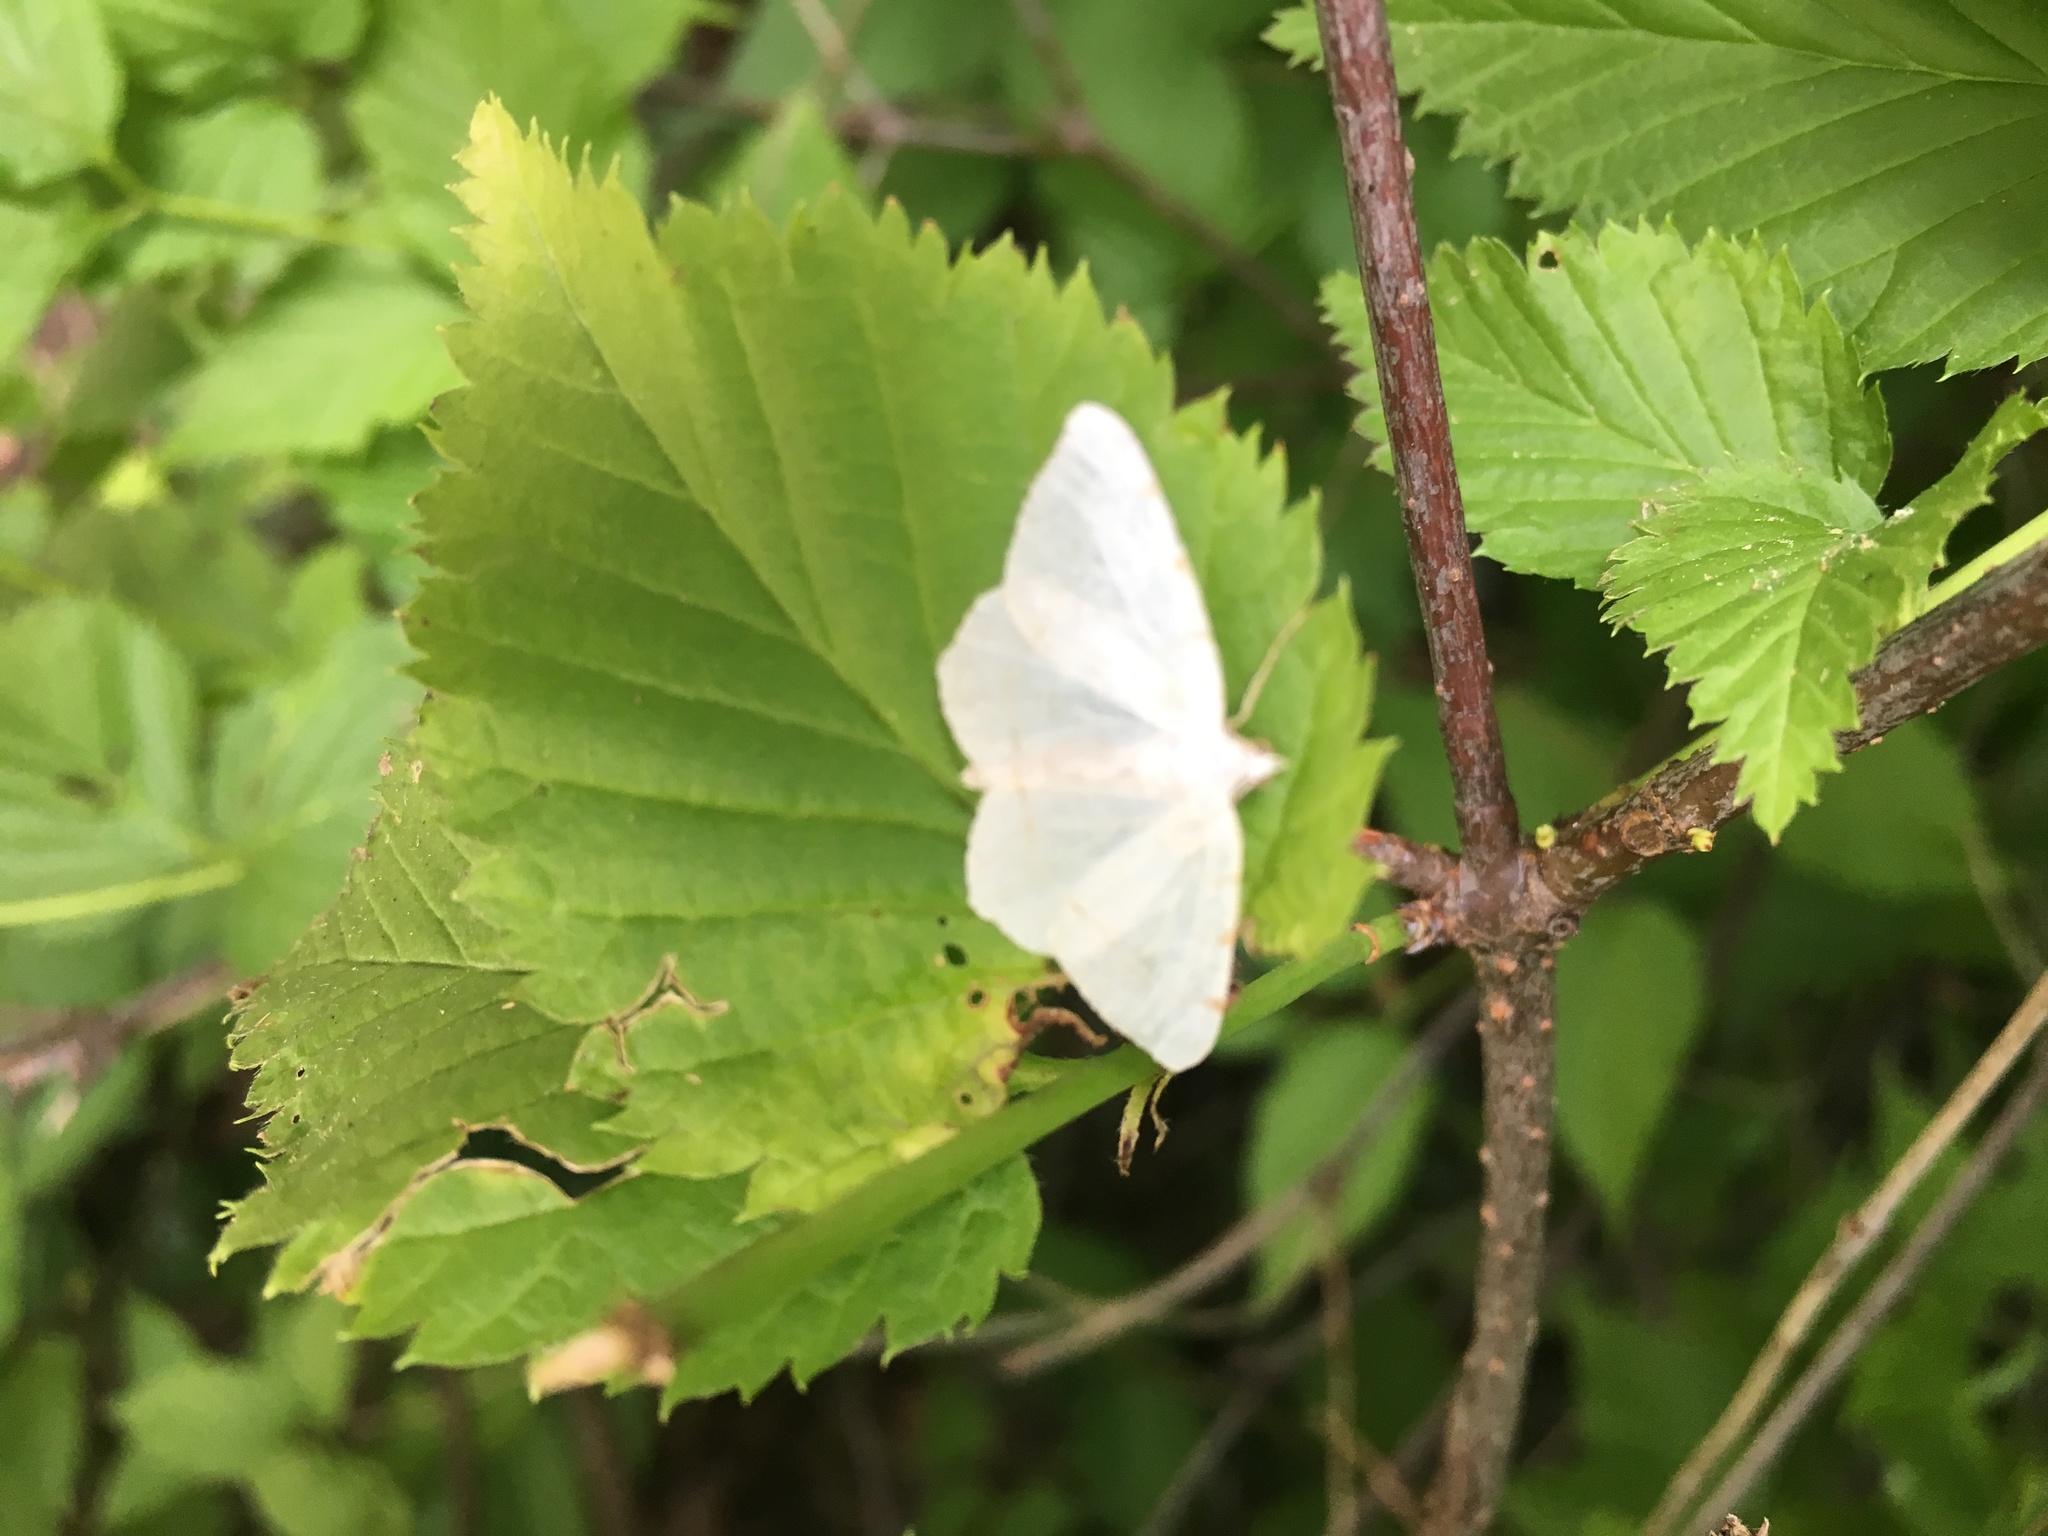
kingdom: Animalia
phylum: Arthropoda
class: Insecta
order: Lepidoptera
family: Geometridae
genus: Macaria
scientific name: Macaria pustularia
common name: Lesser maple spanworm moth
